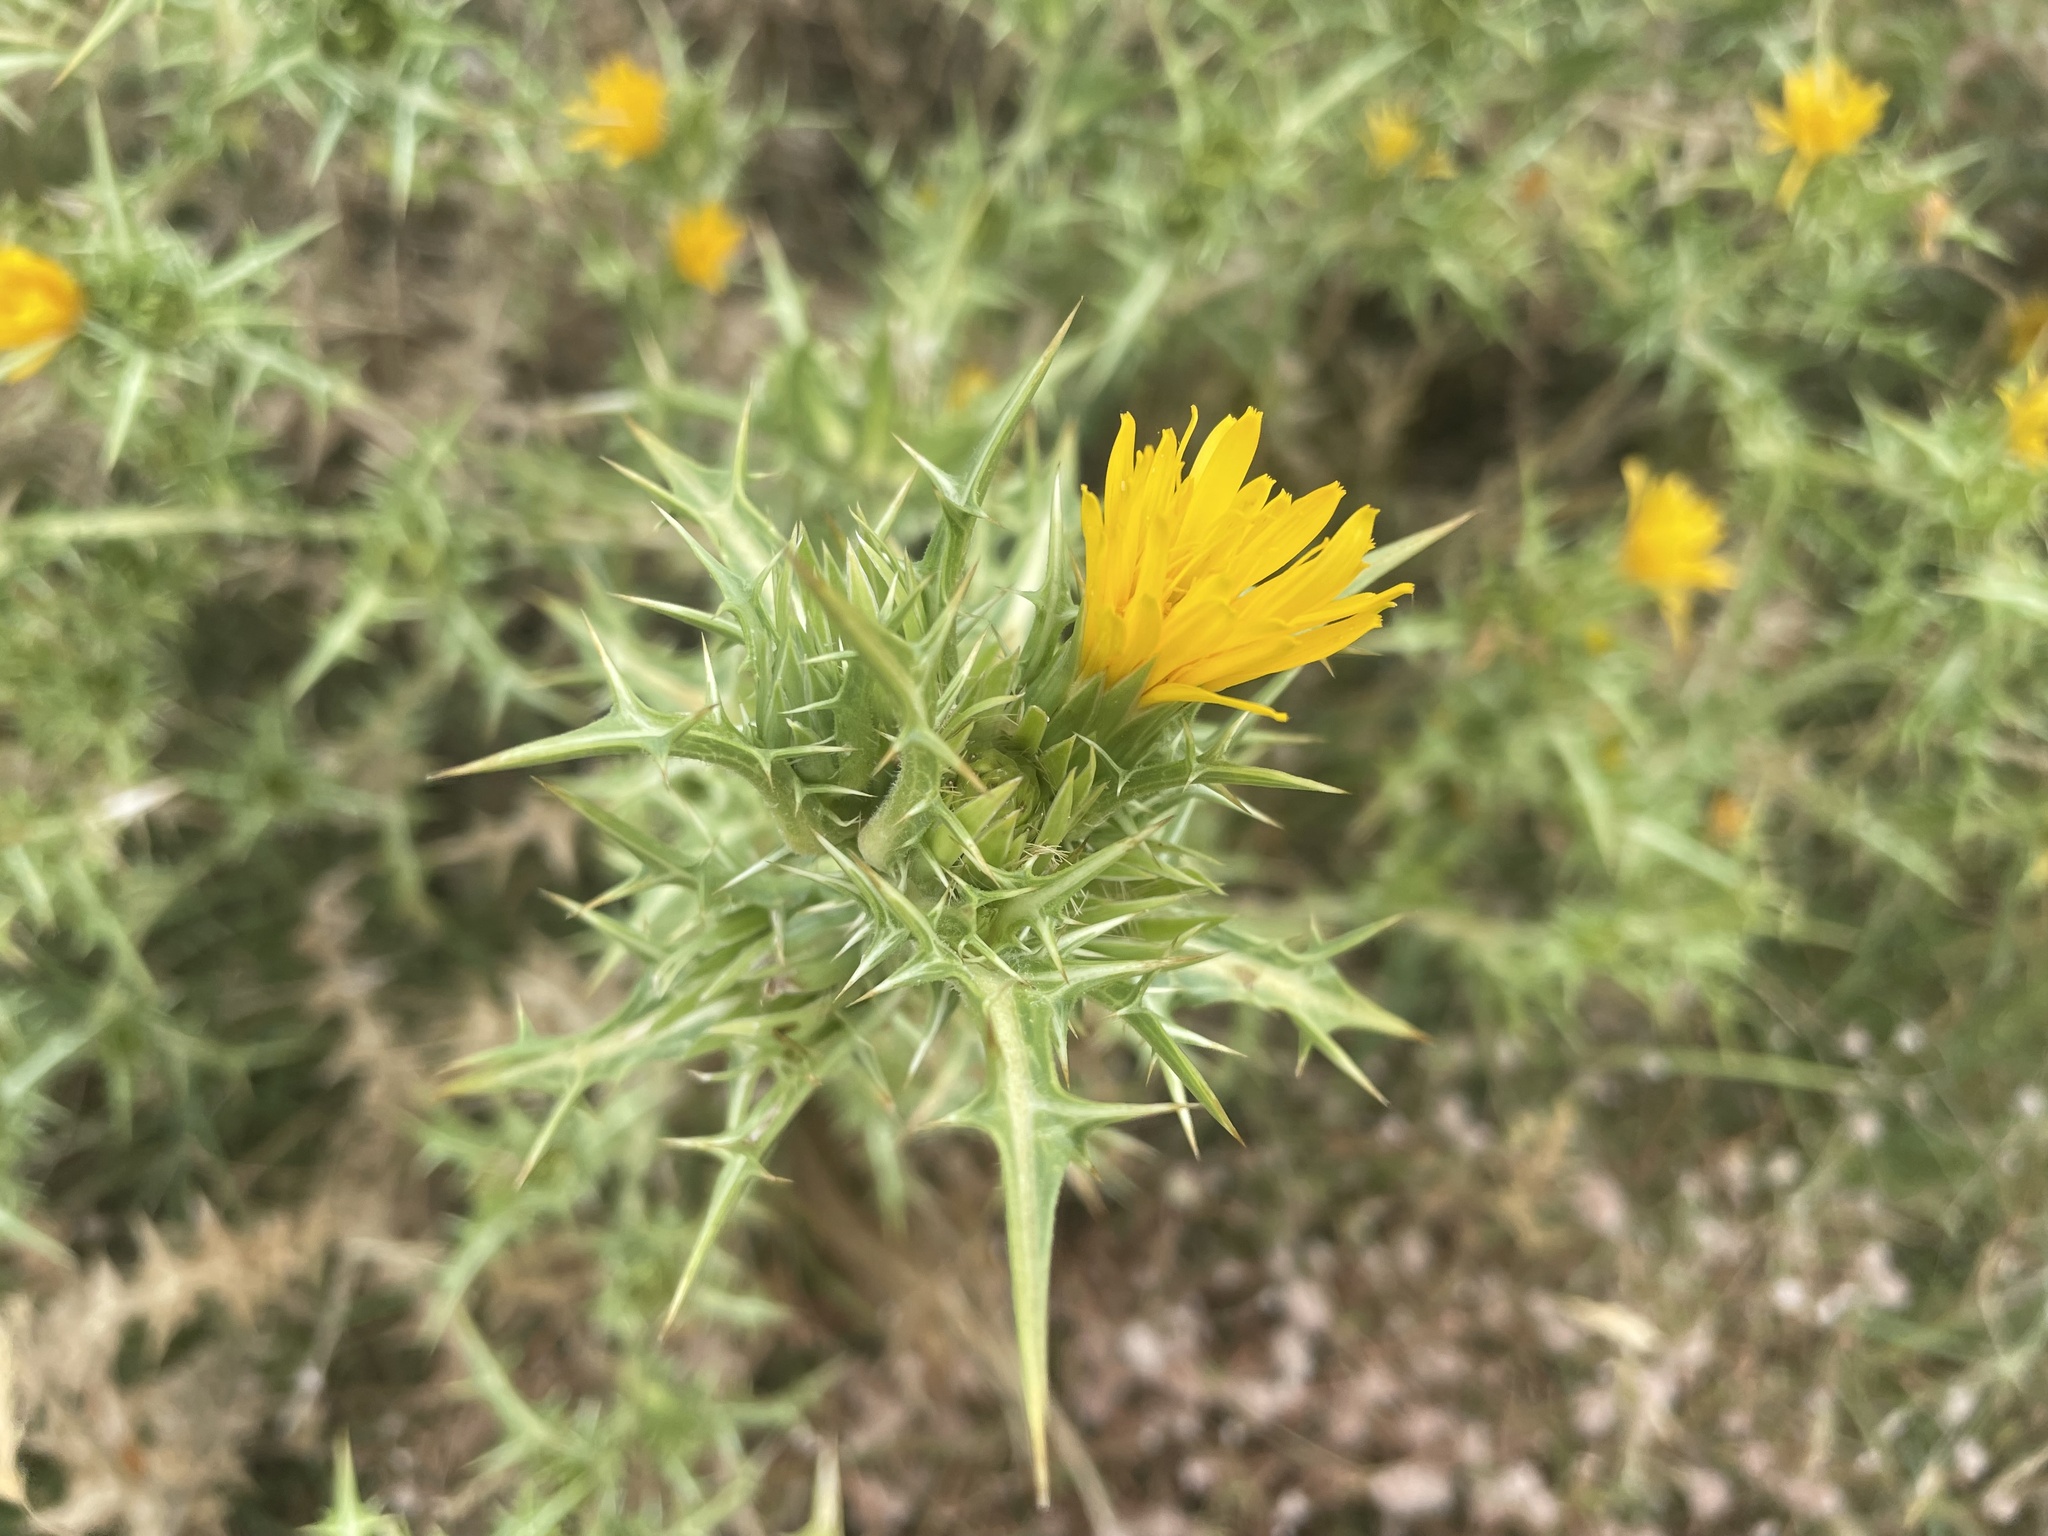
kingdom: Plantae
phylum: Tracheophyta
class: Magnoliopsida
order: Asterales
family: Asteraceae
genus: Scolymus
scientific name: Scolymus hispanicus
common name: Golden thistle
